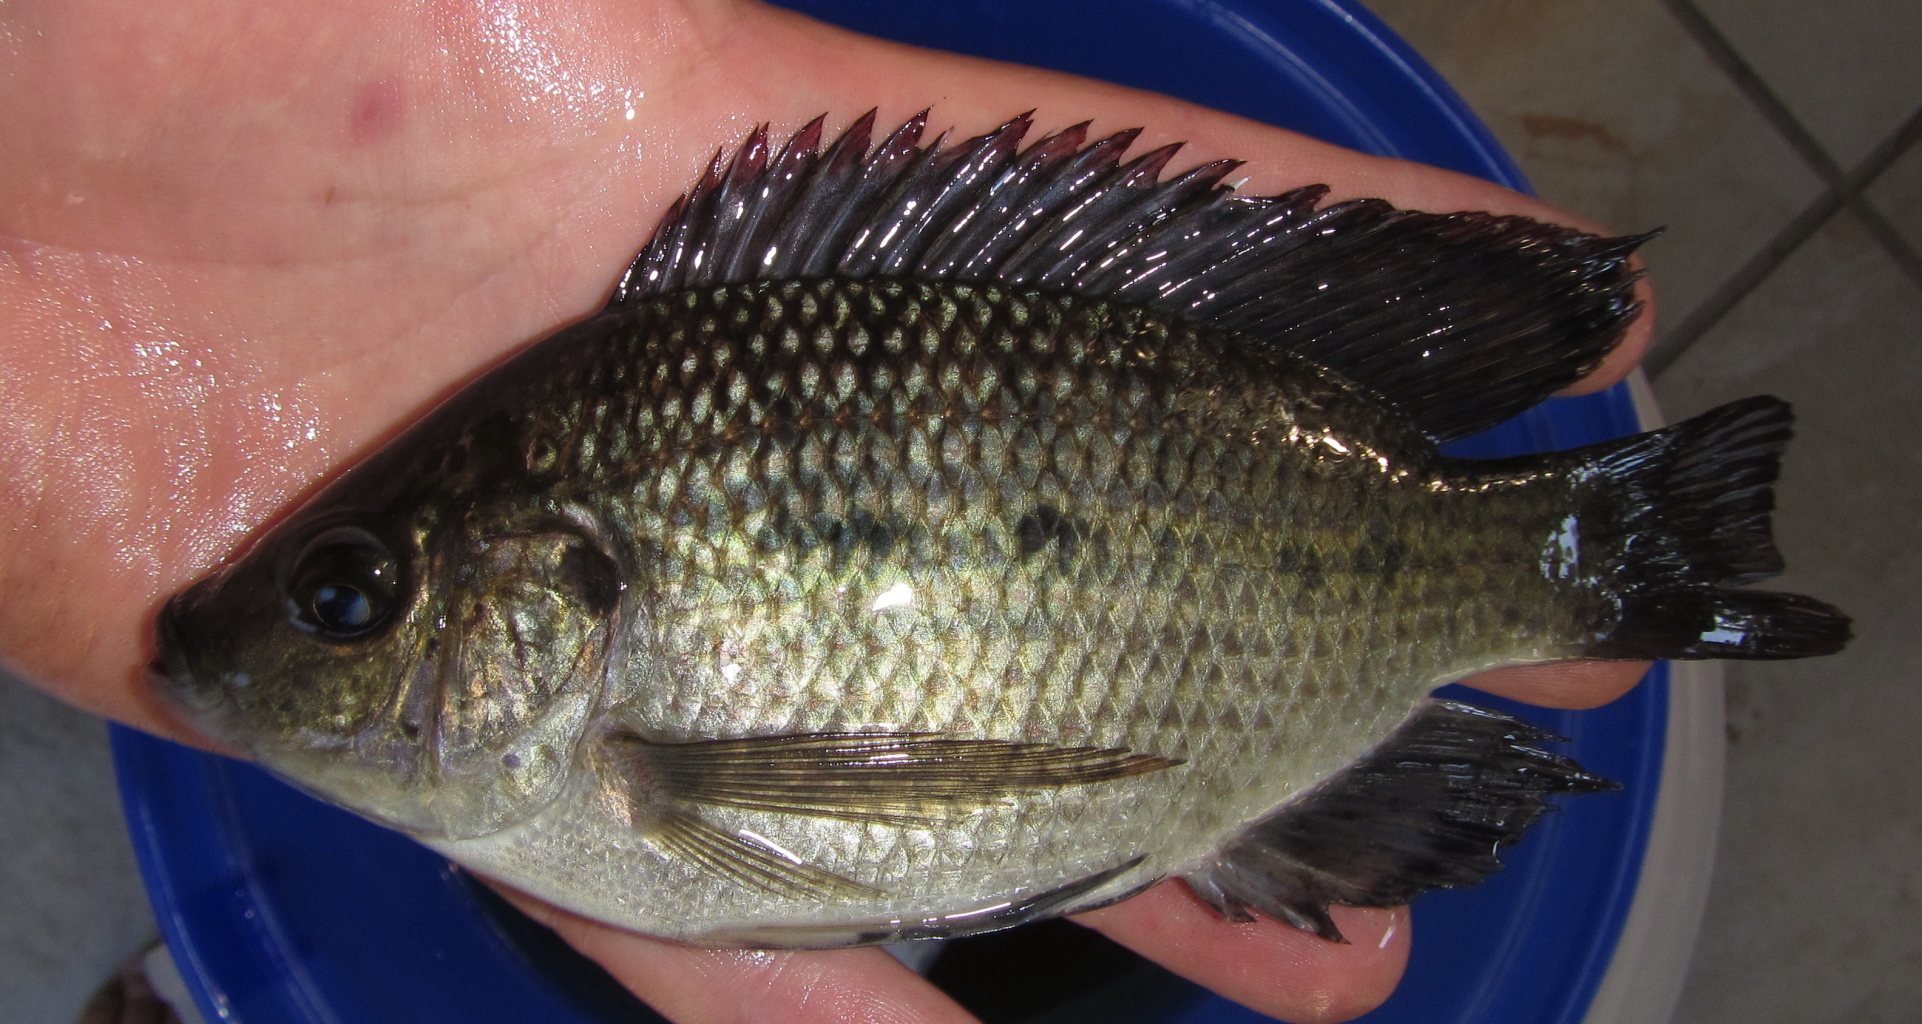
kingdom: Animalia
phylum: Chordata
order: Perciformes
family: Cichlidae
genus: Oreochromis
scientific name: Oreochromis andersonii
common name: Threespot tilapia
